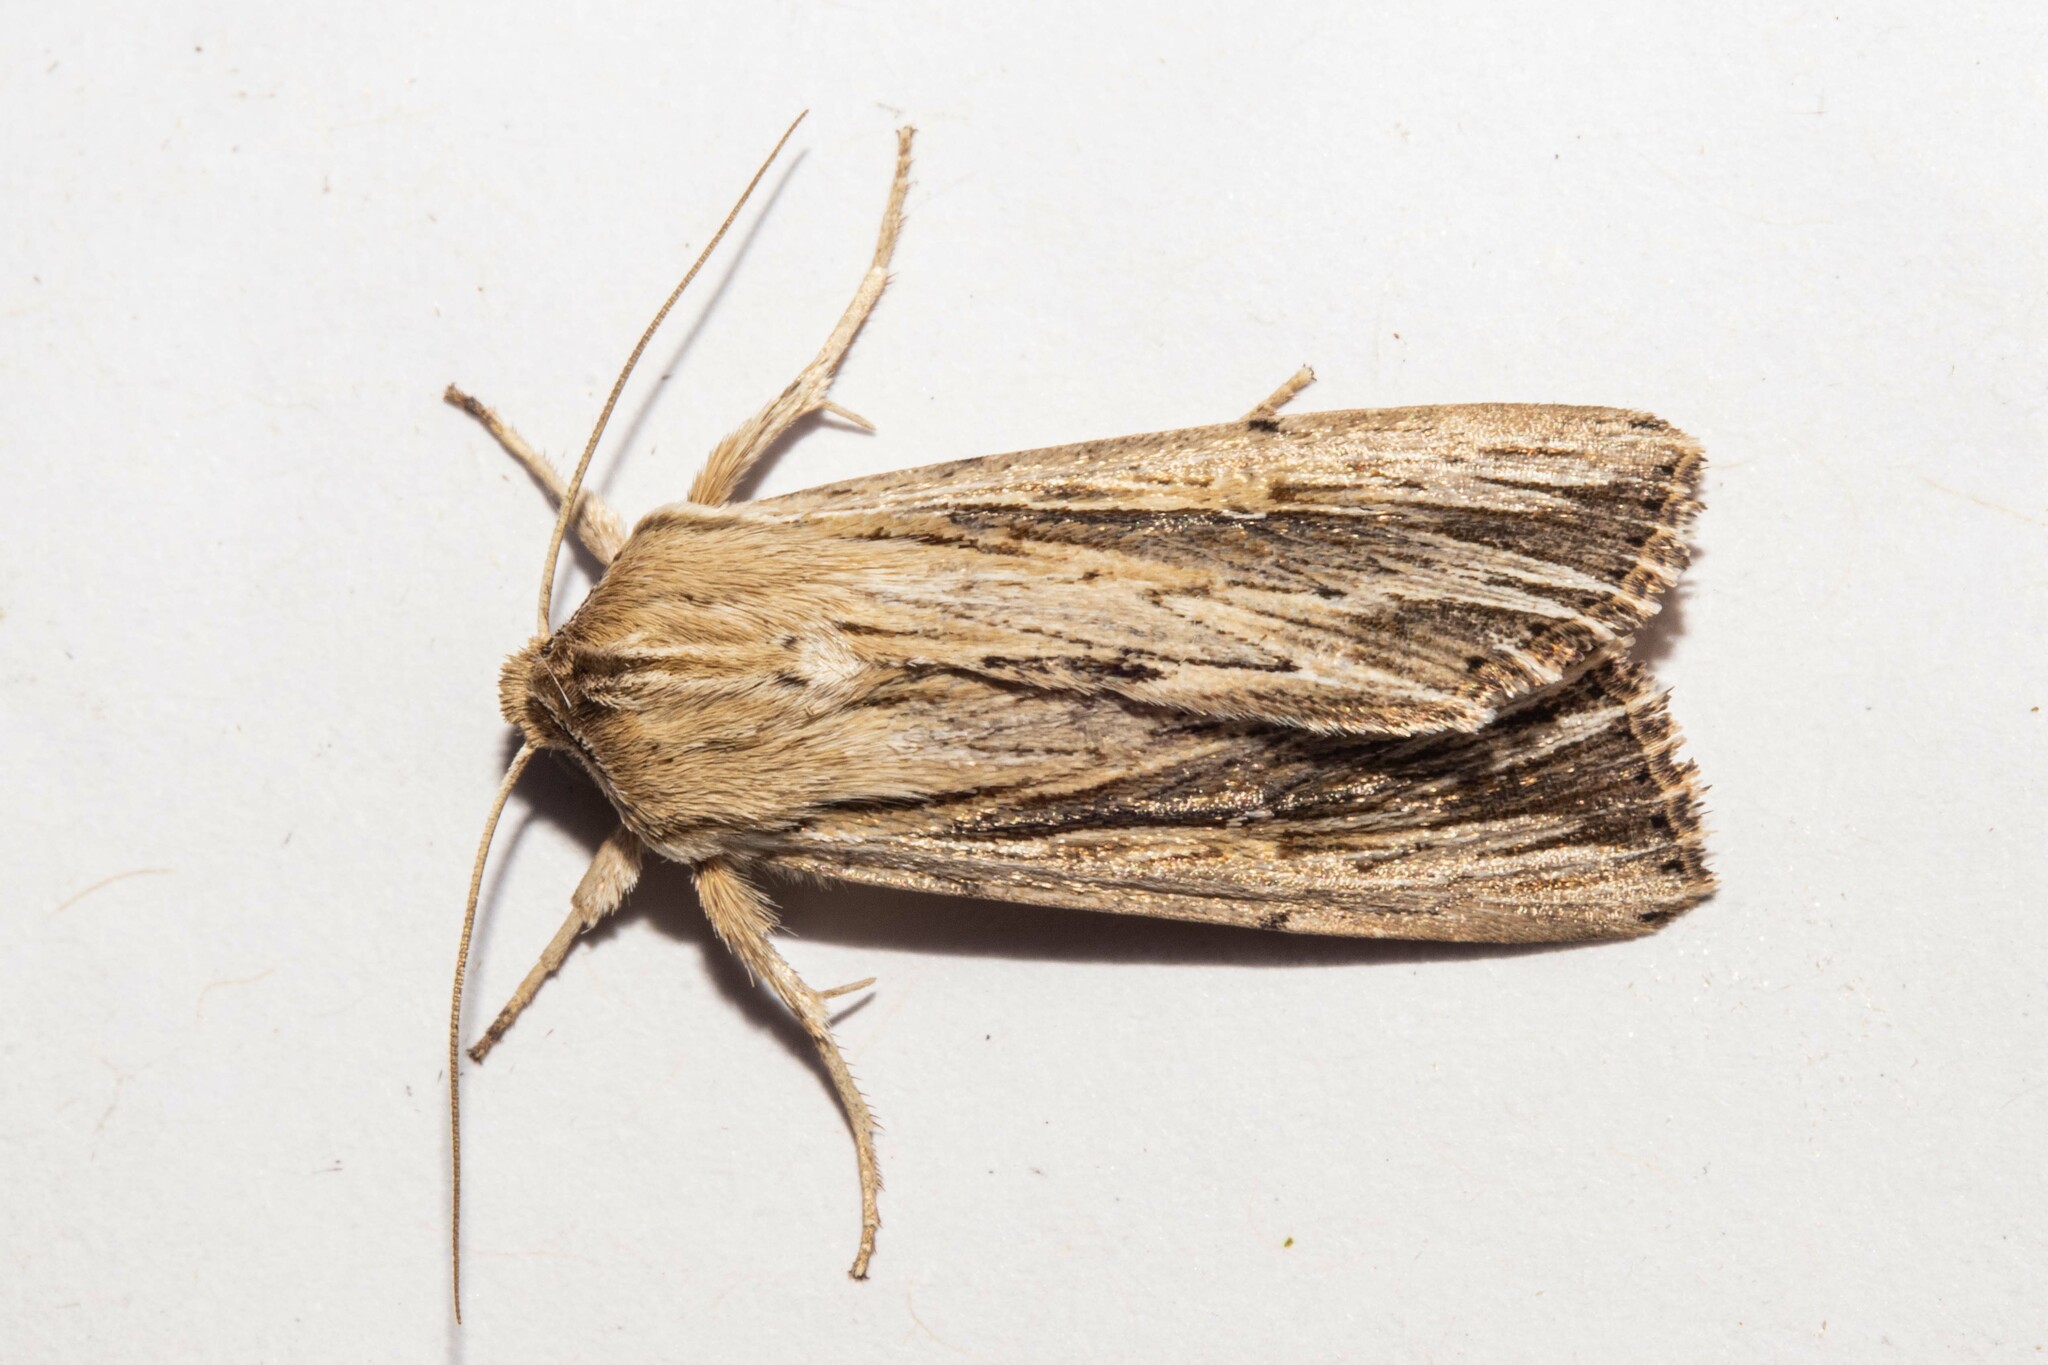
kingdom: Animalia
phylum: Arthropoda
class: Insecta
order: Lepidoptera
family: Noctuidae
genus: Persectania
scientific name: Persectania aversa
